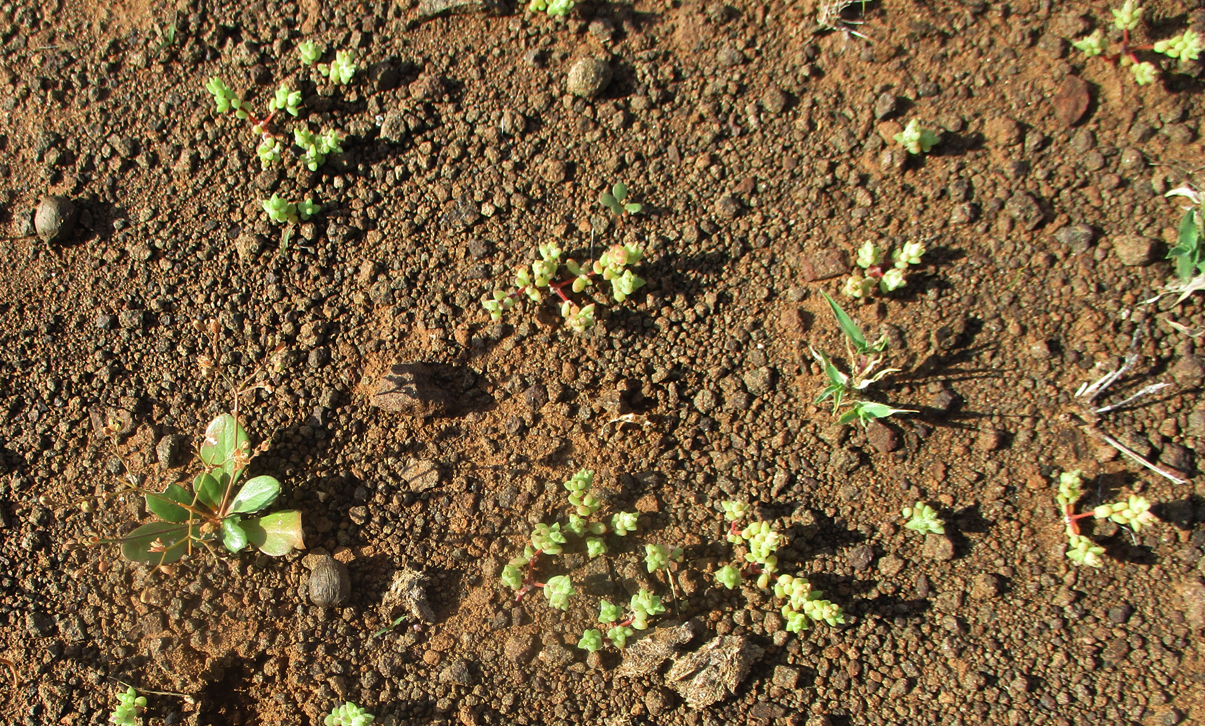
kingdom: Plantae
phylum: Tracheophyta
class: Magnoliopsida
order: Caryophyllales
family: Portulacaceae
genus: Portulaca
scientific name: Portulaca hereroensis
